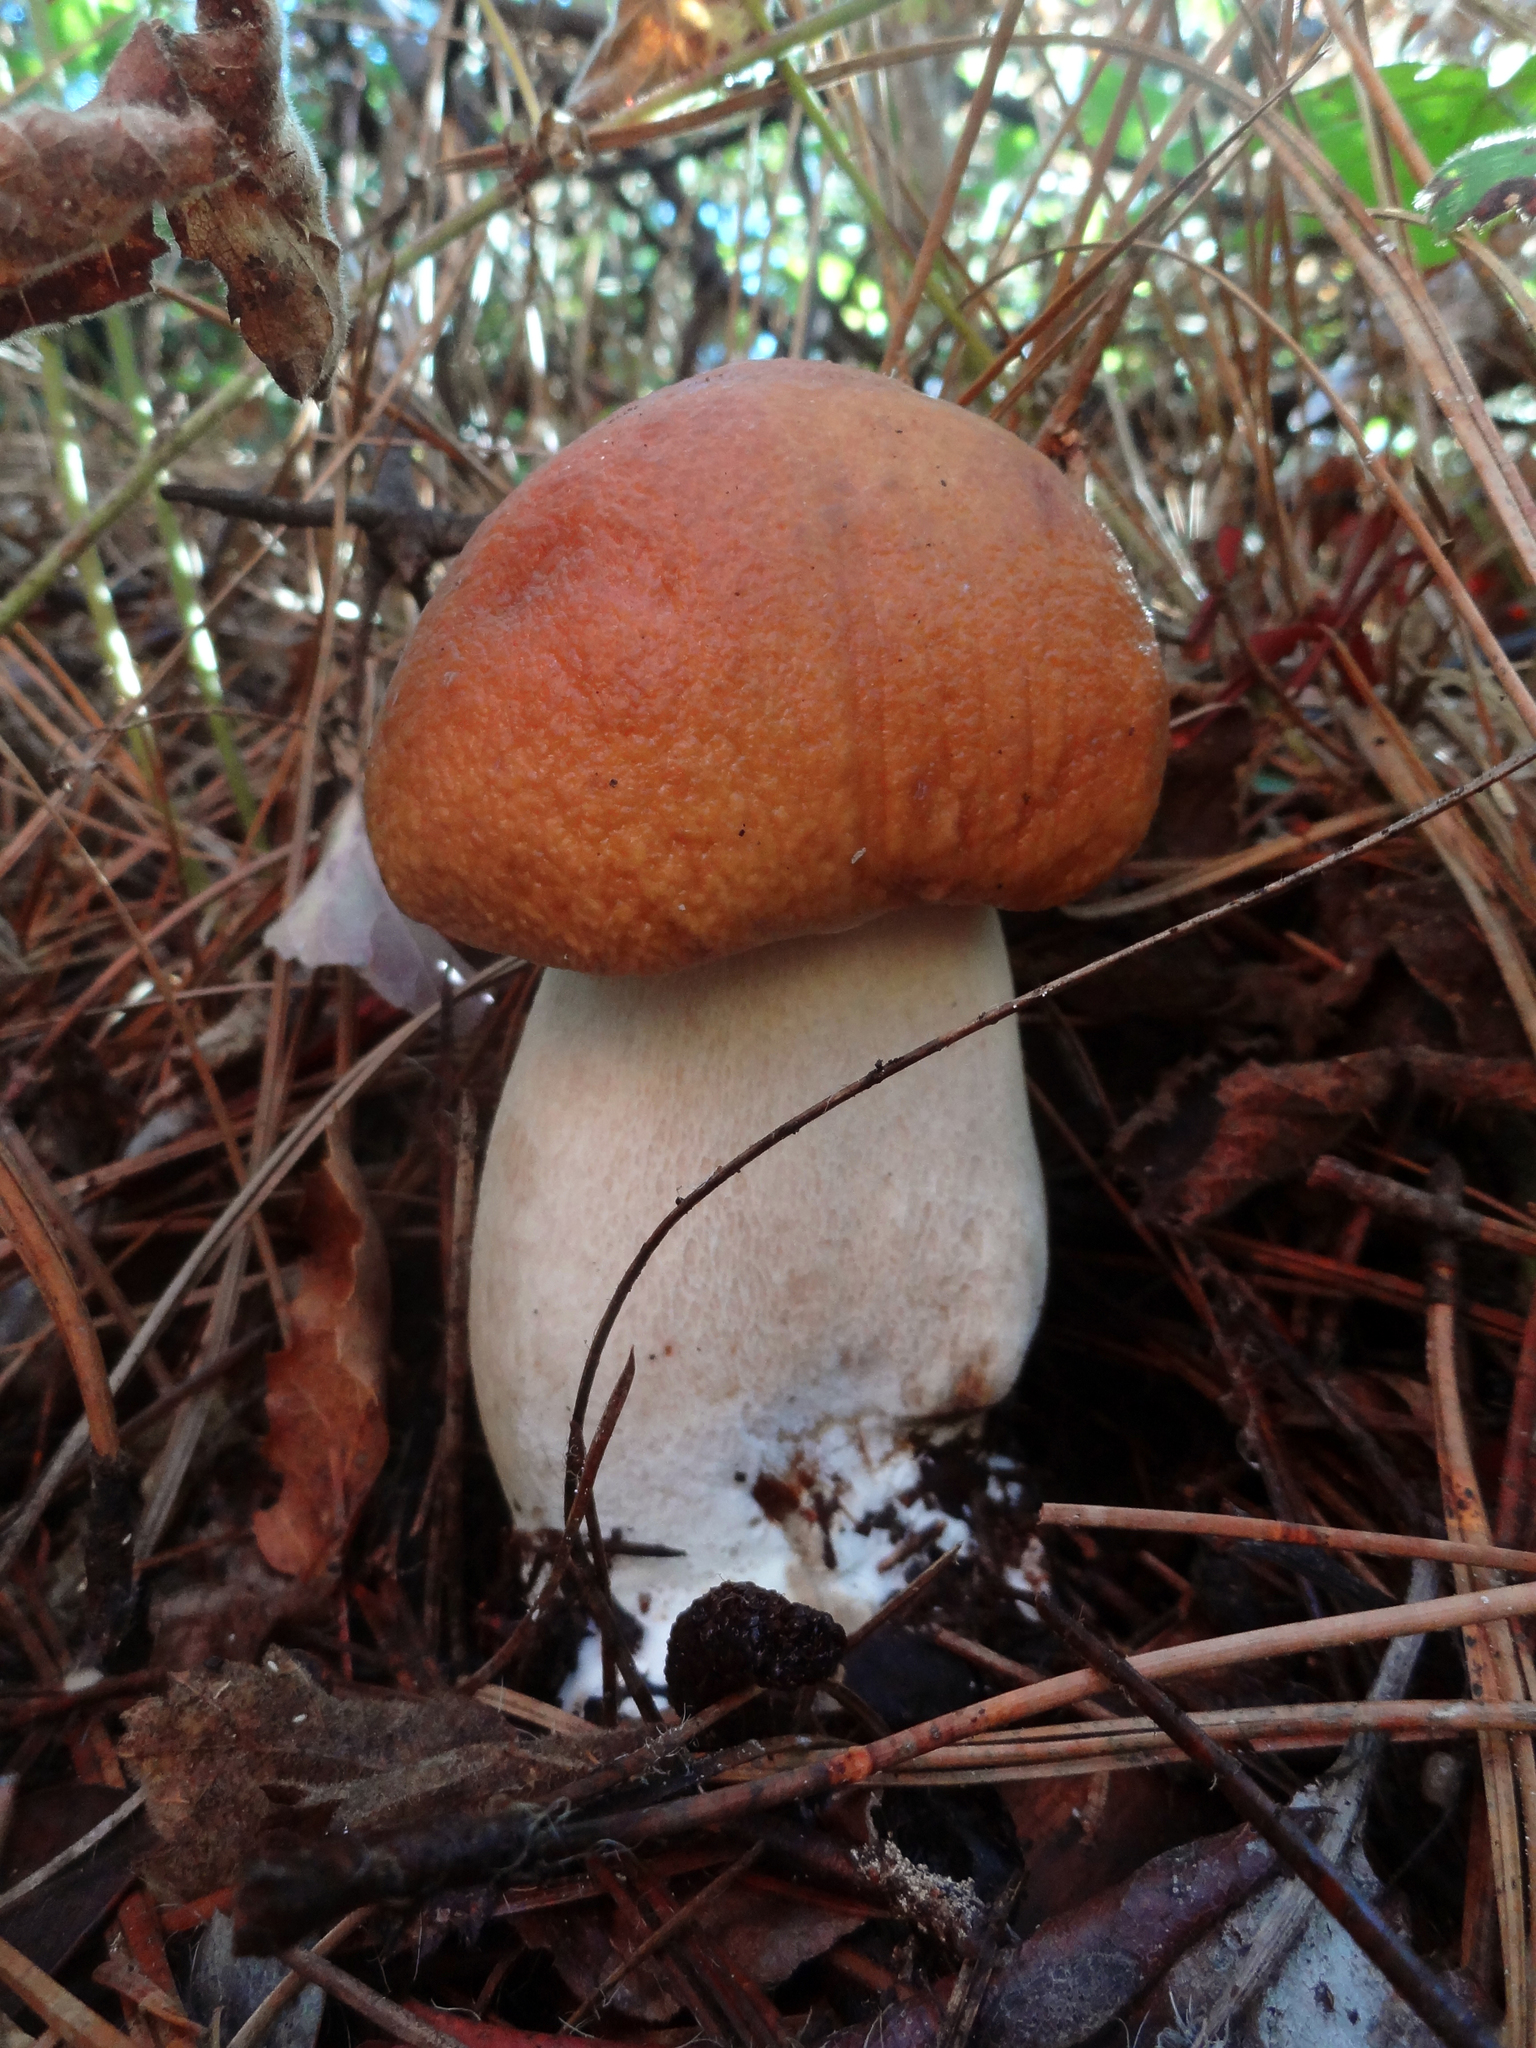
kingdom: Fungi
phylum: Basidiomycota
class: Agaricomycetes
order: Boletales
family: Boletaceae
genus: Boletus
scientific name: Boletus edulis
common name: Cep
